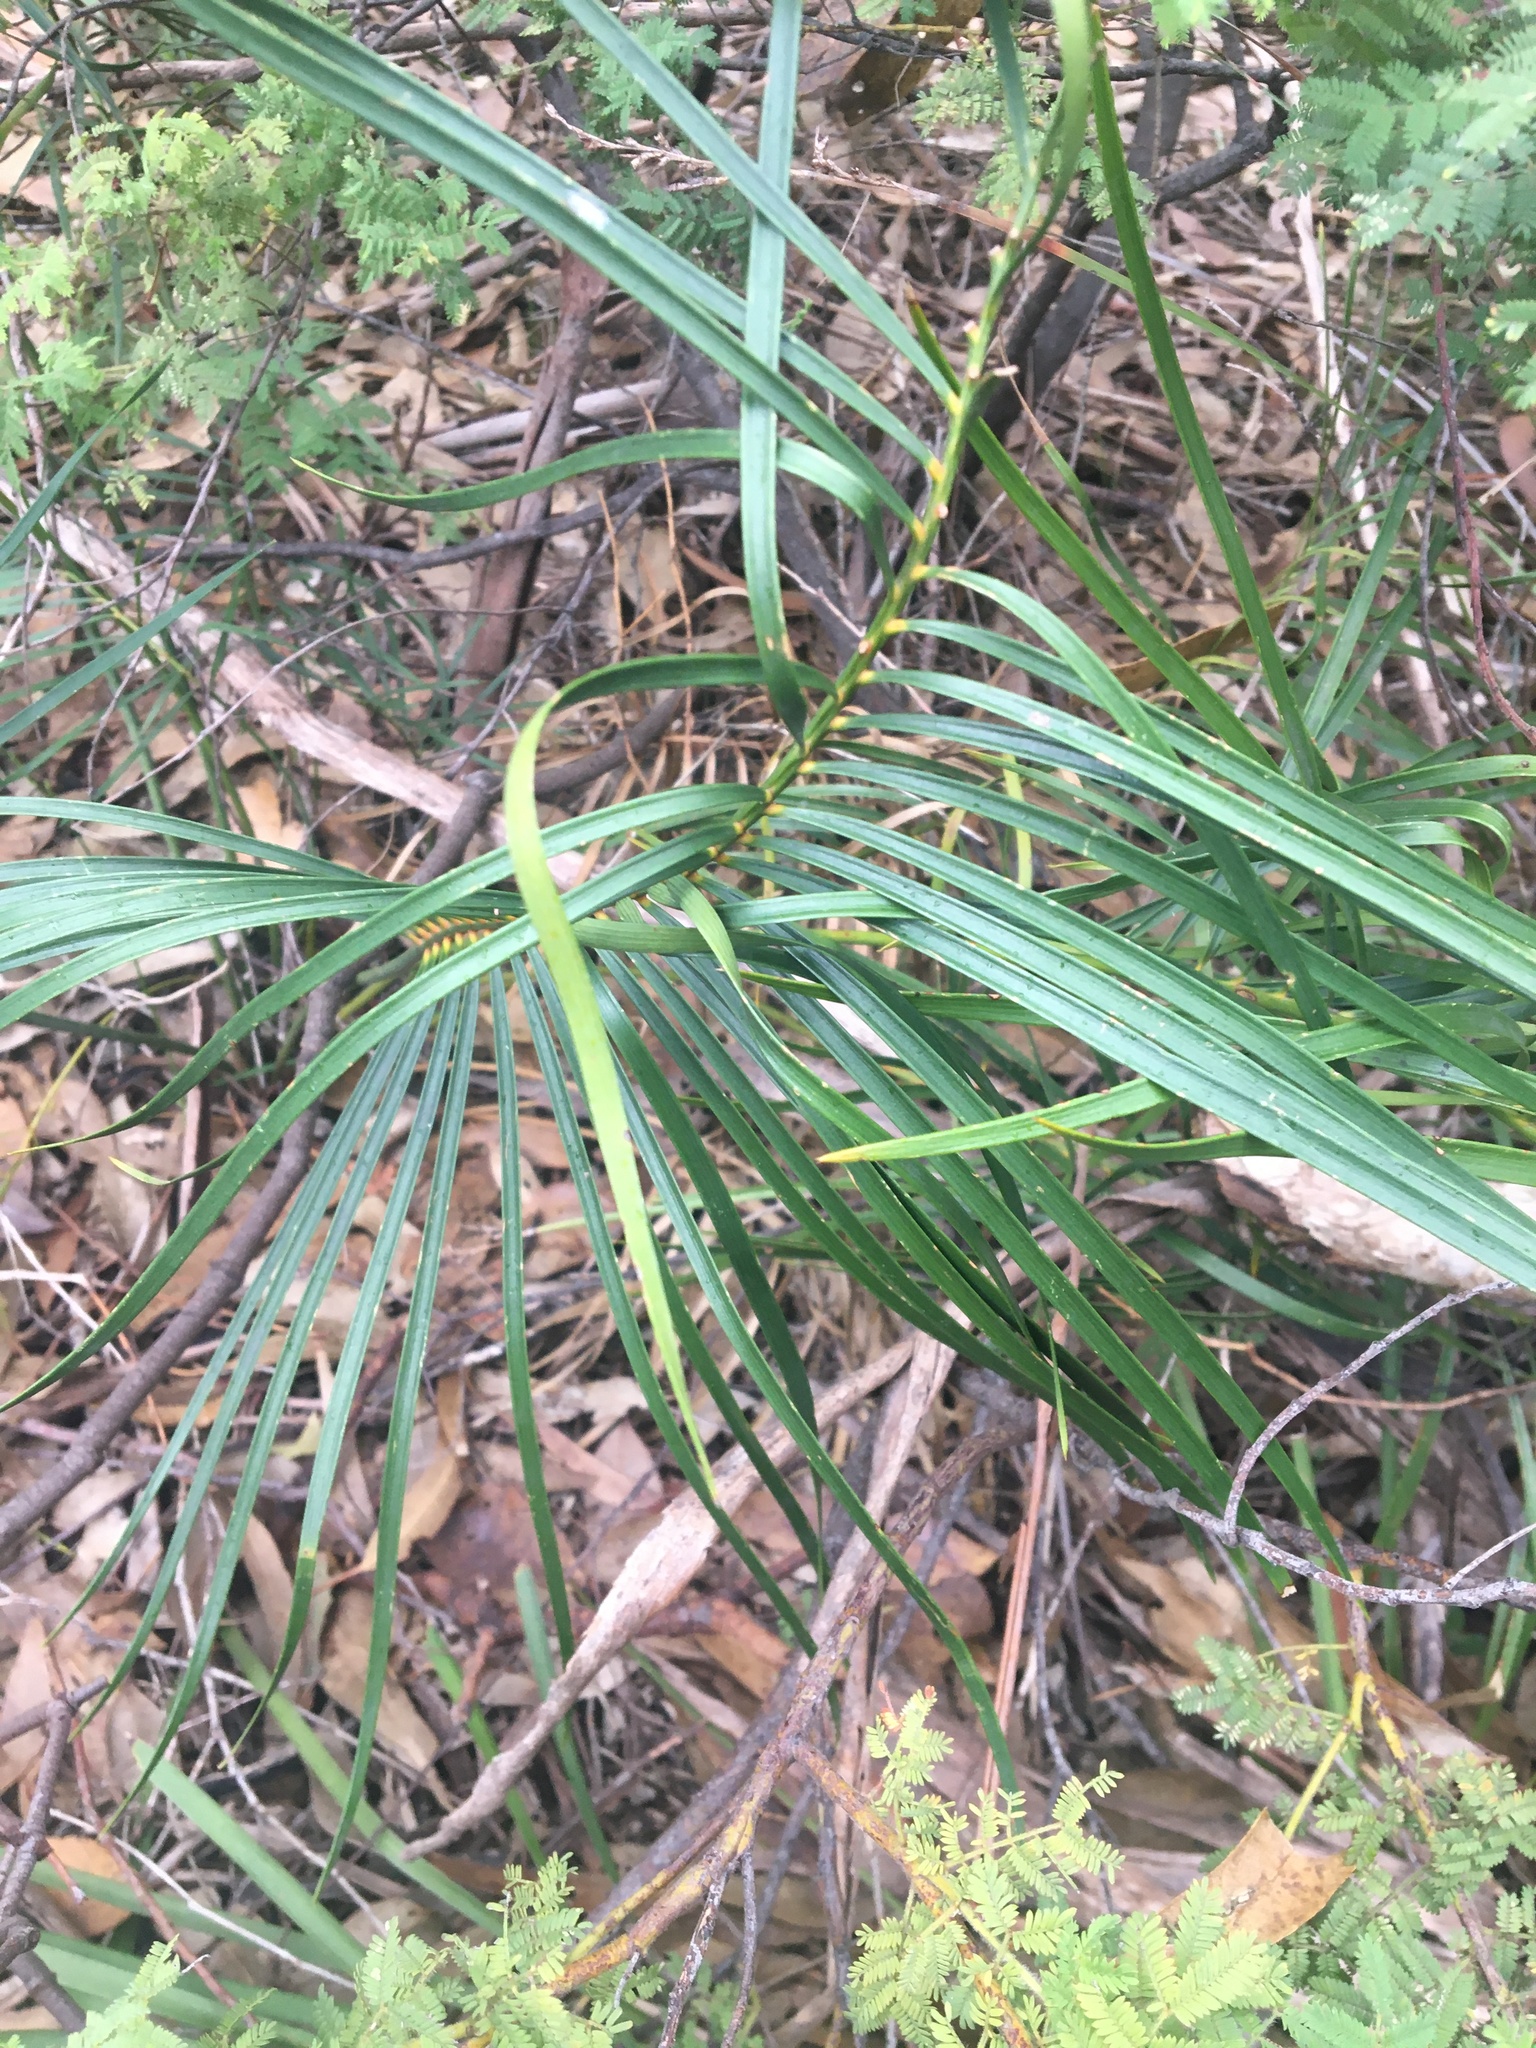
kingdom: Plantae
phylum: Tracheophyta
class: Cycadopsida
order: Cycadales
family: Zamiaceae
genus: Macrozamia
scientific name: Macrozamia spiralis
